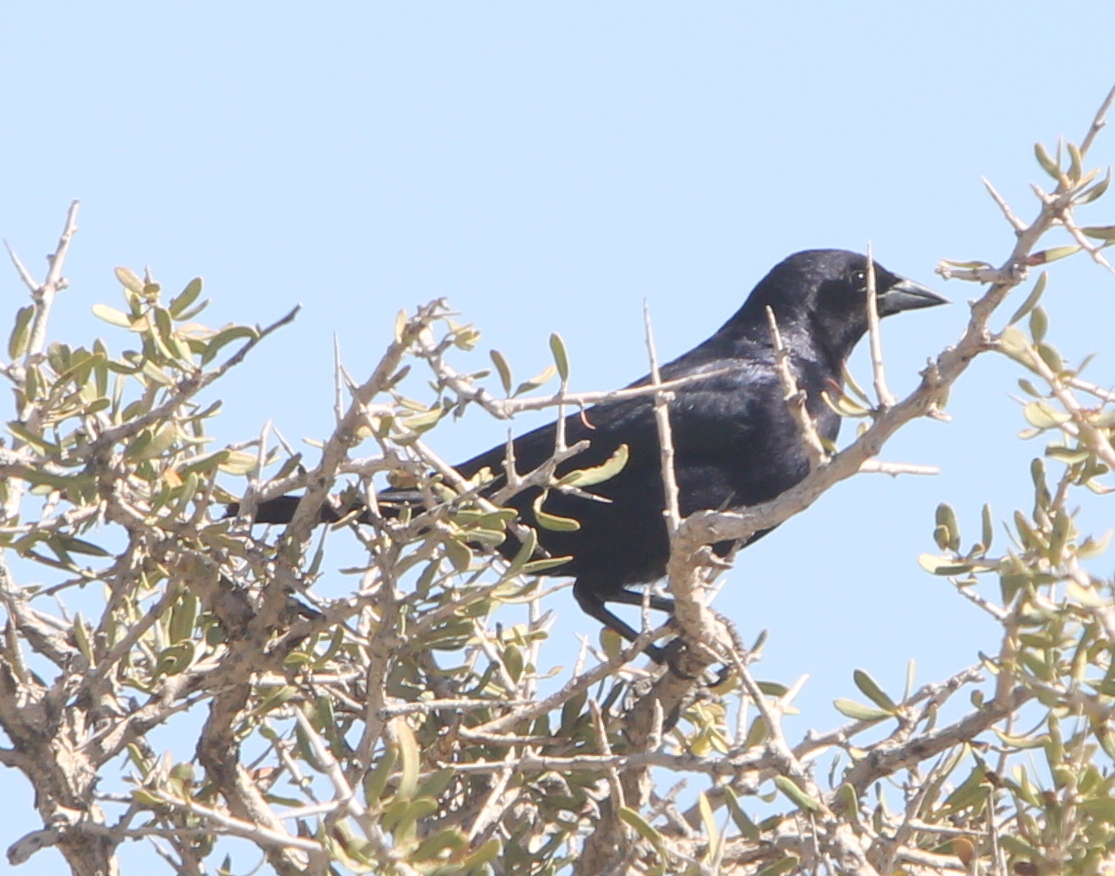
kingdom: Animalia
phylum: Chordata
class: Aves
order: Passeriformes
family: Icteridae
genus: Molothrus
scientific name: Molothrus bonariensis
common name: Shiny cowbird
